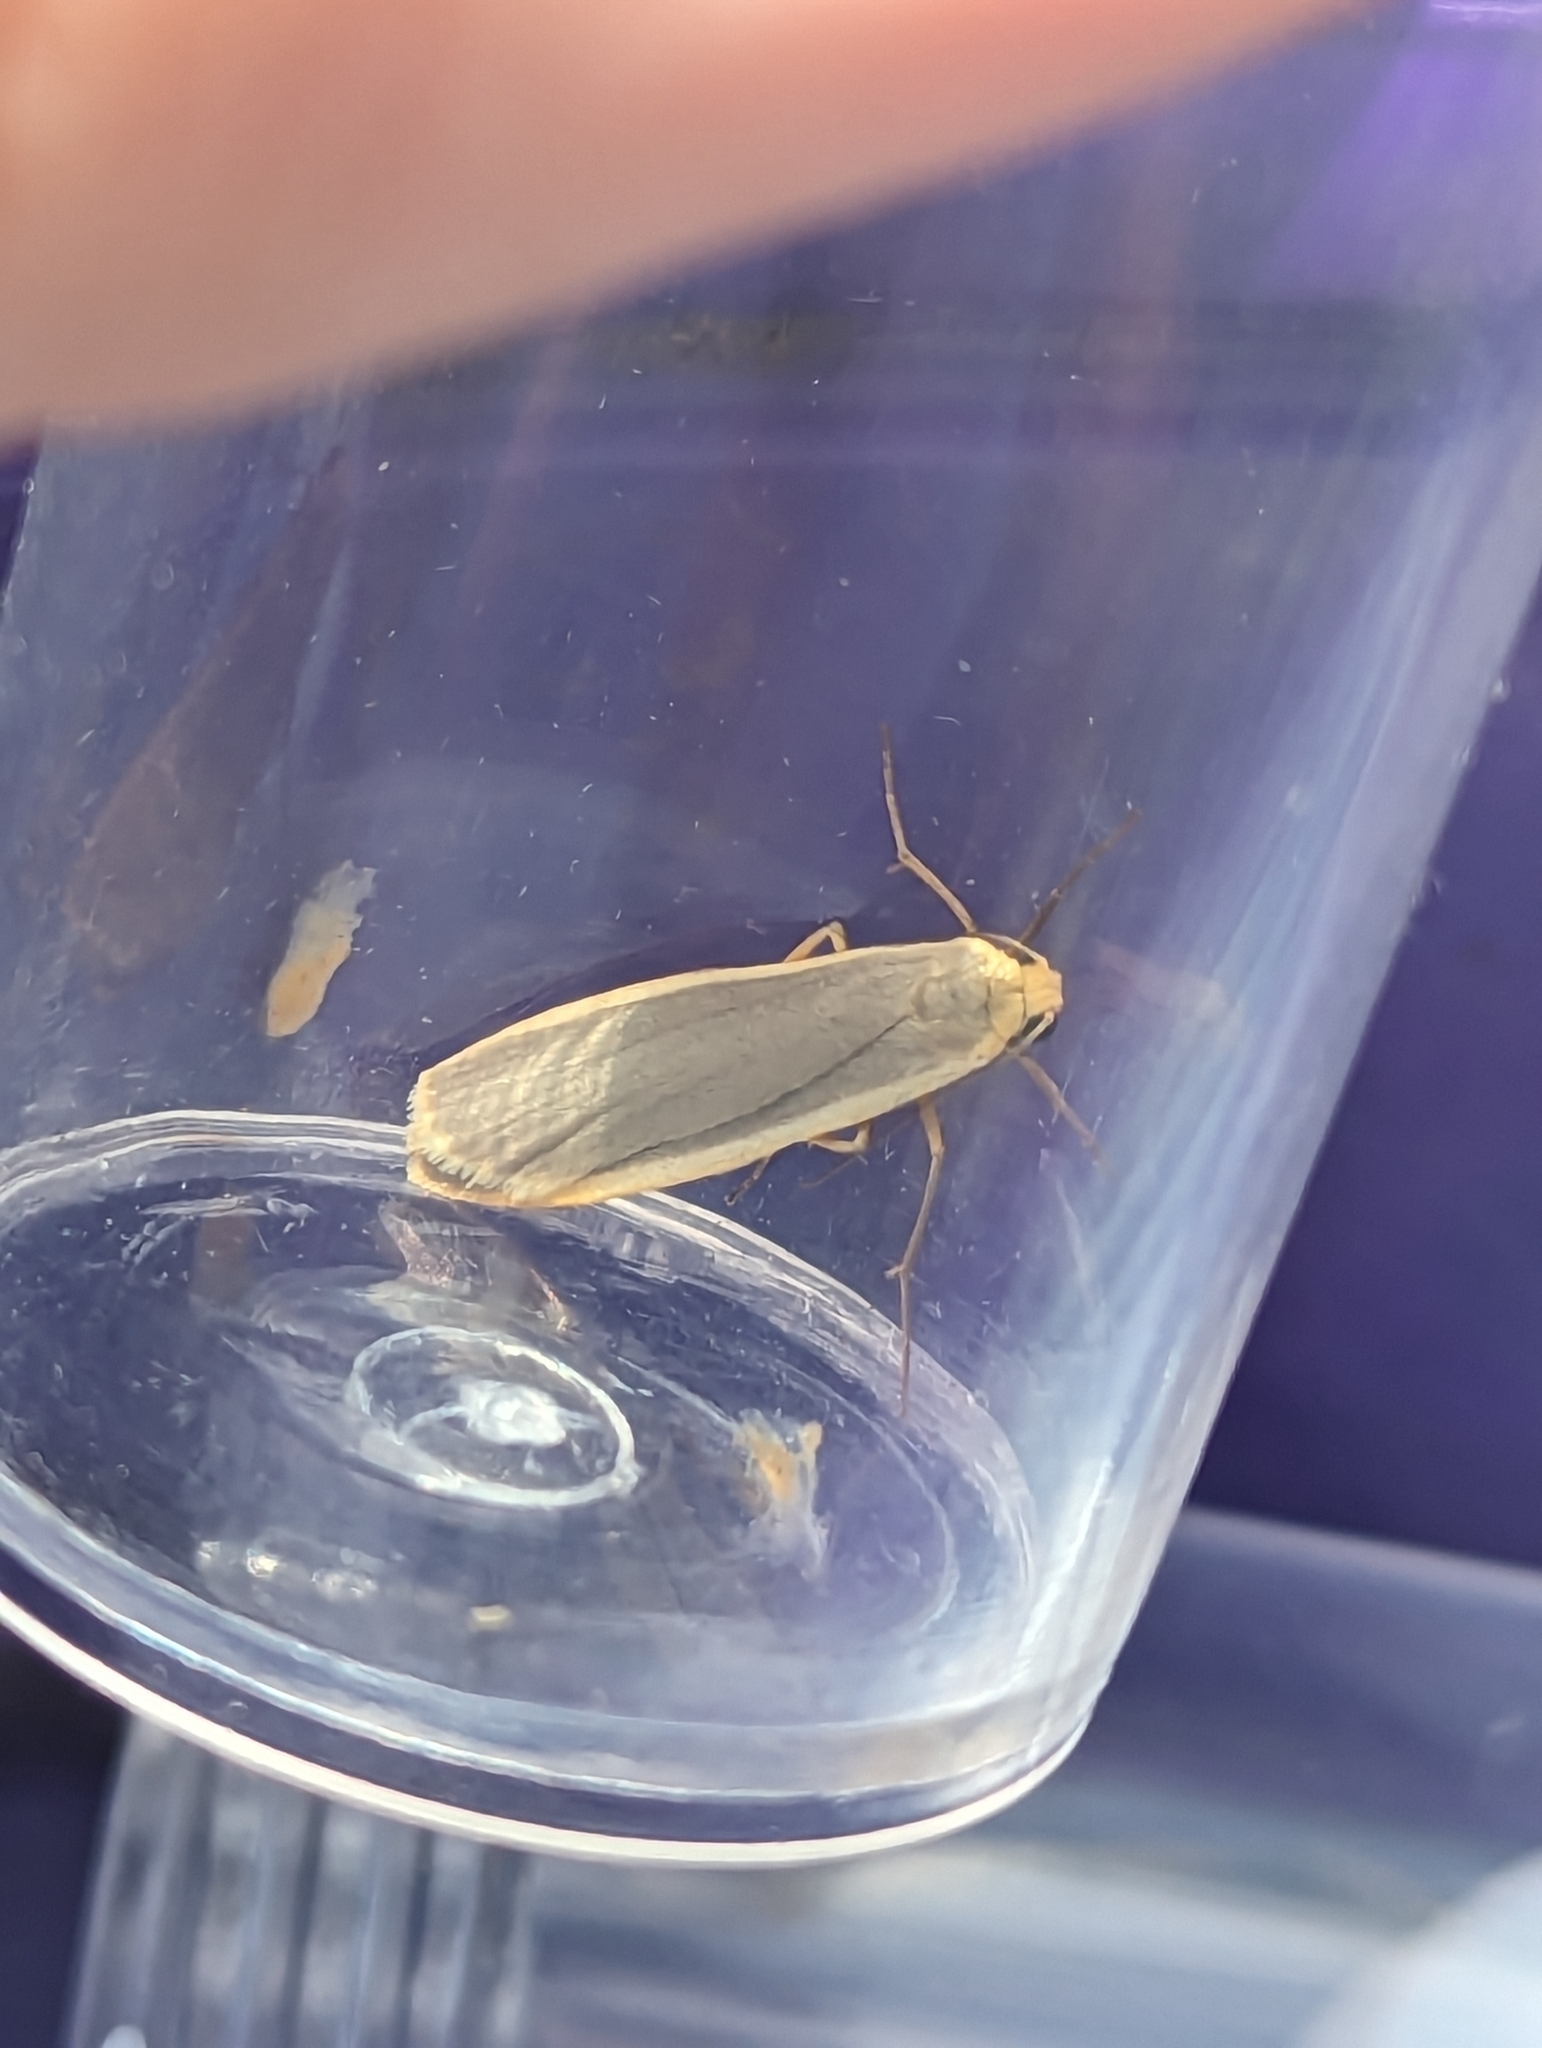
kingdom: Animalia
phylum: Arthropoda
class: Insecta
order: Lepidoptera
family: Erebidae
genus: Nyea
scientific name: Nyea lurideola
